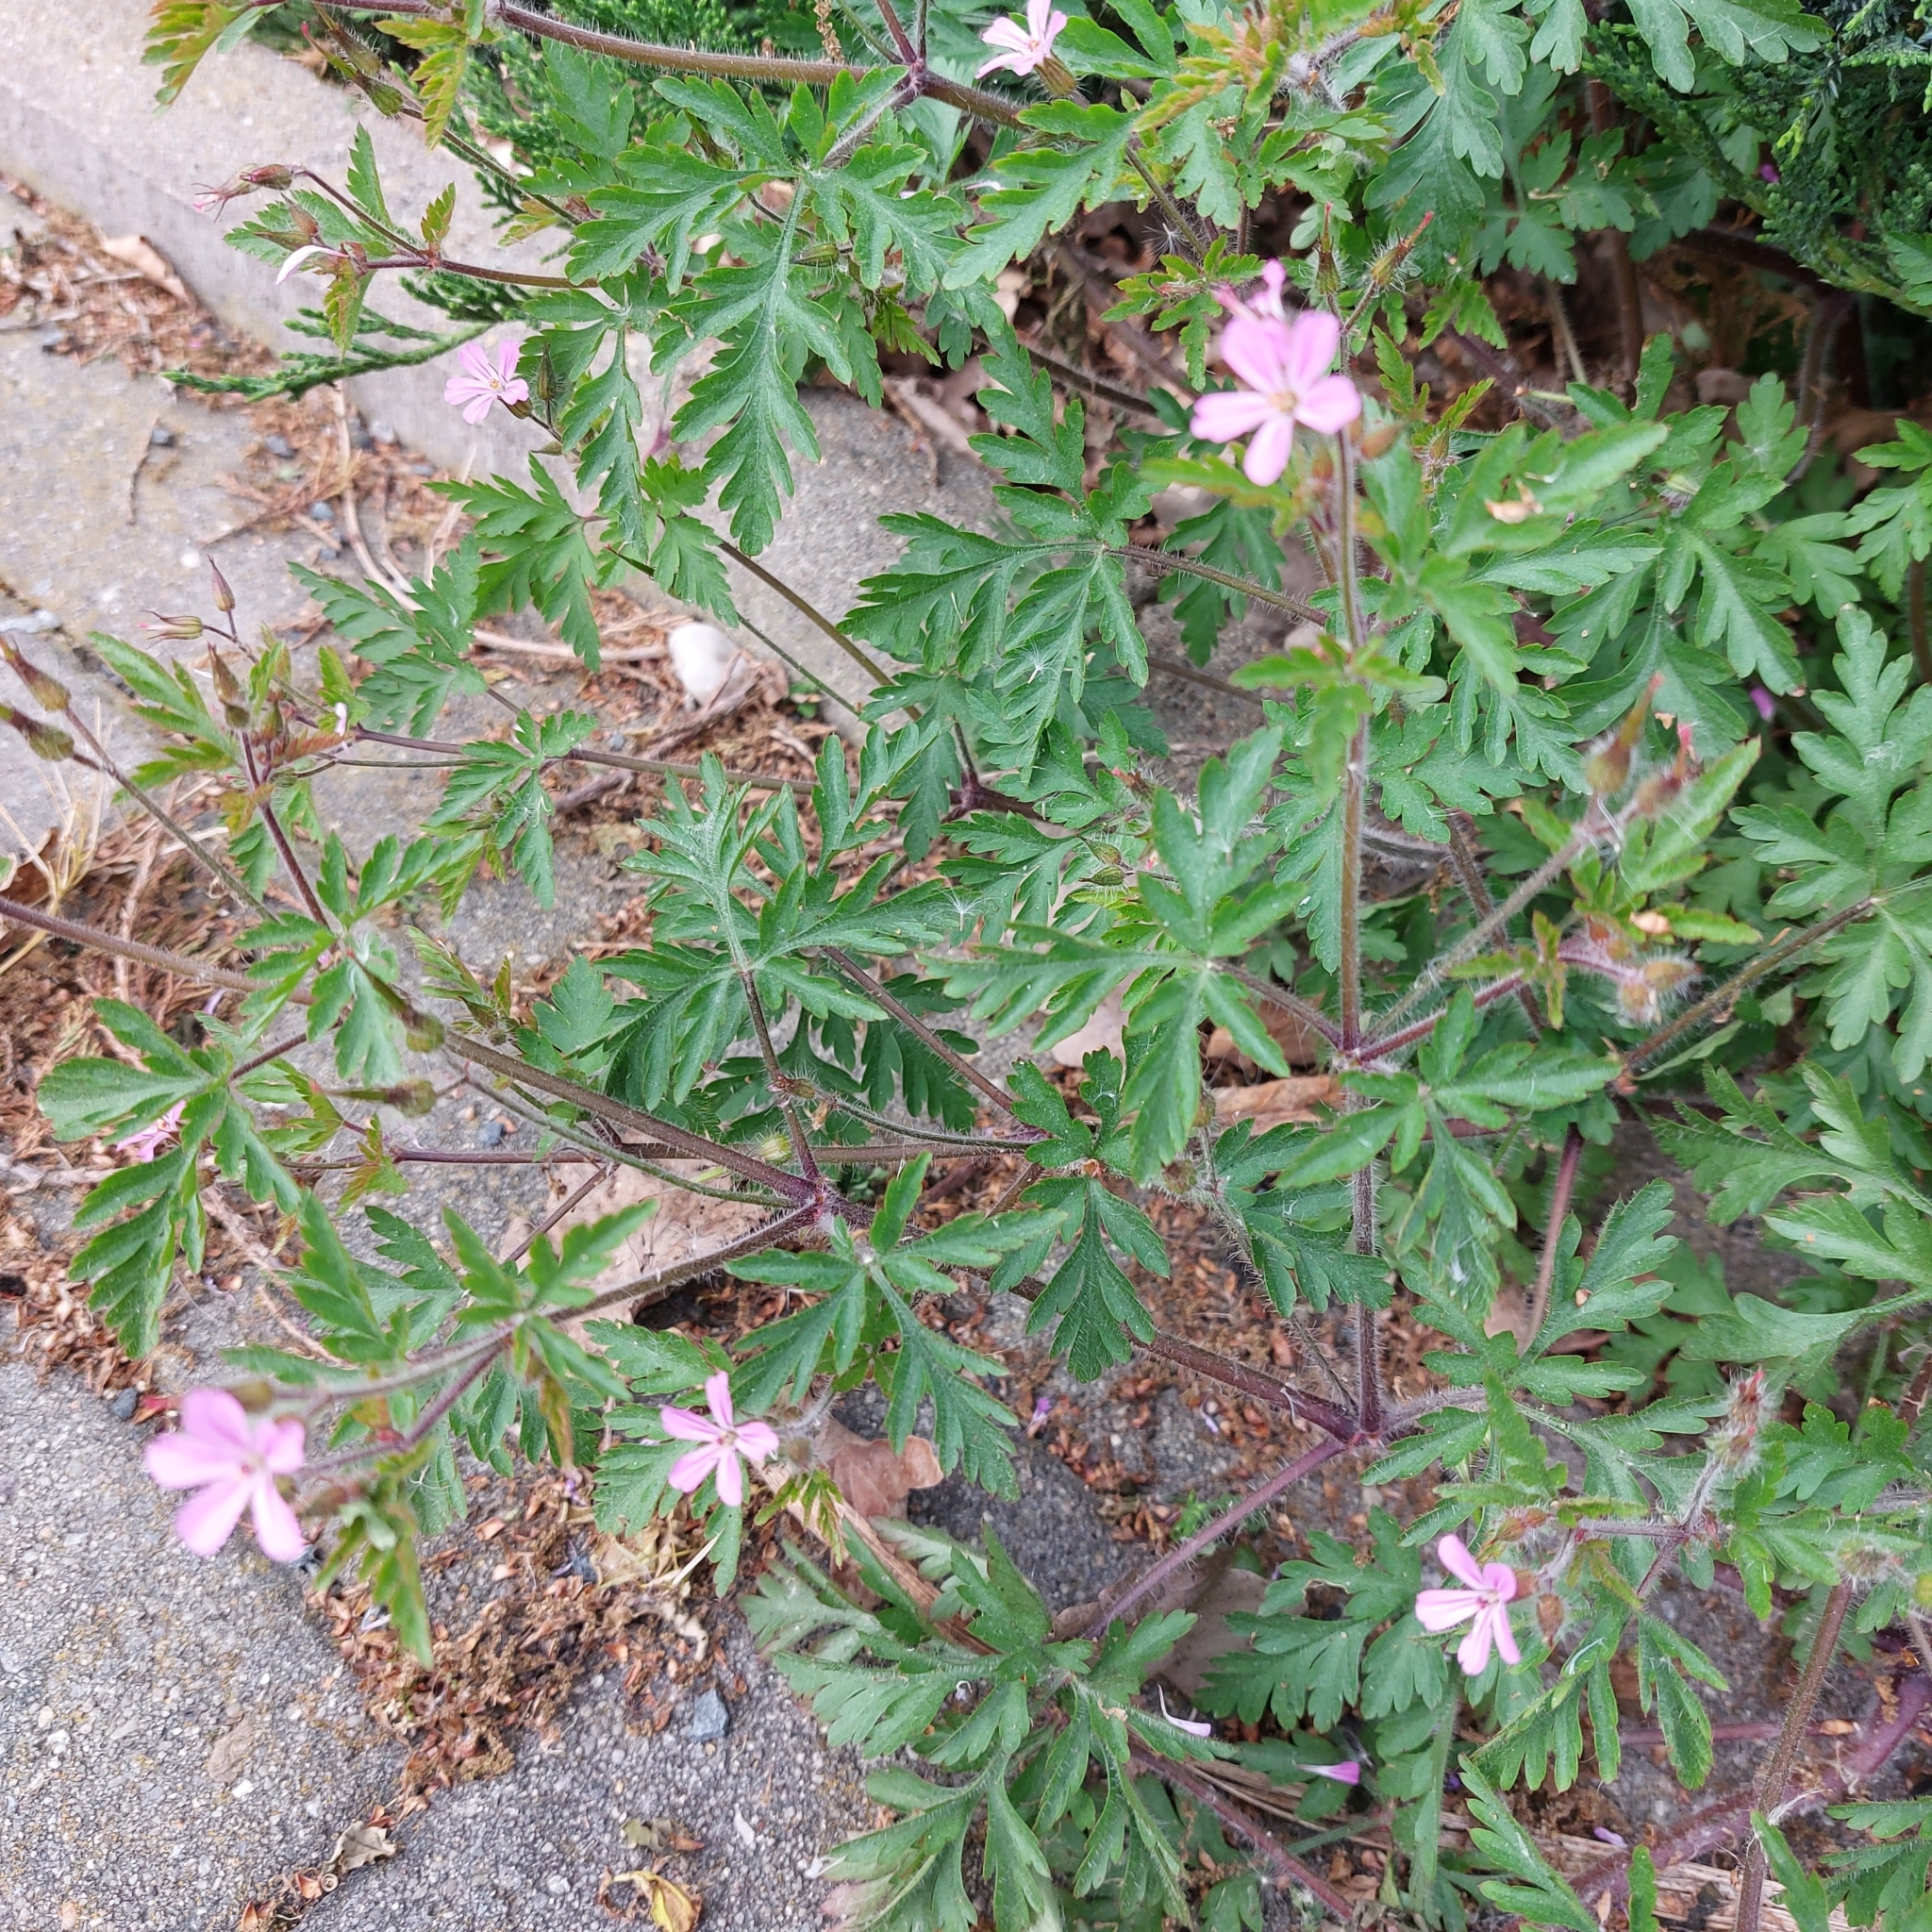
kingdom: Plantae
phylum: Tracheophyta
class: Magnoliopsida
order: Geraniales
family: Geraniaceae
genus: Geranium
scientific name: Geranium robertianum
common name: Herb-robert
